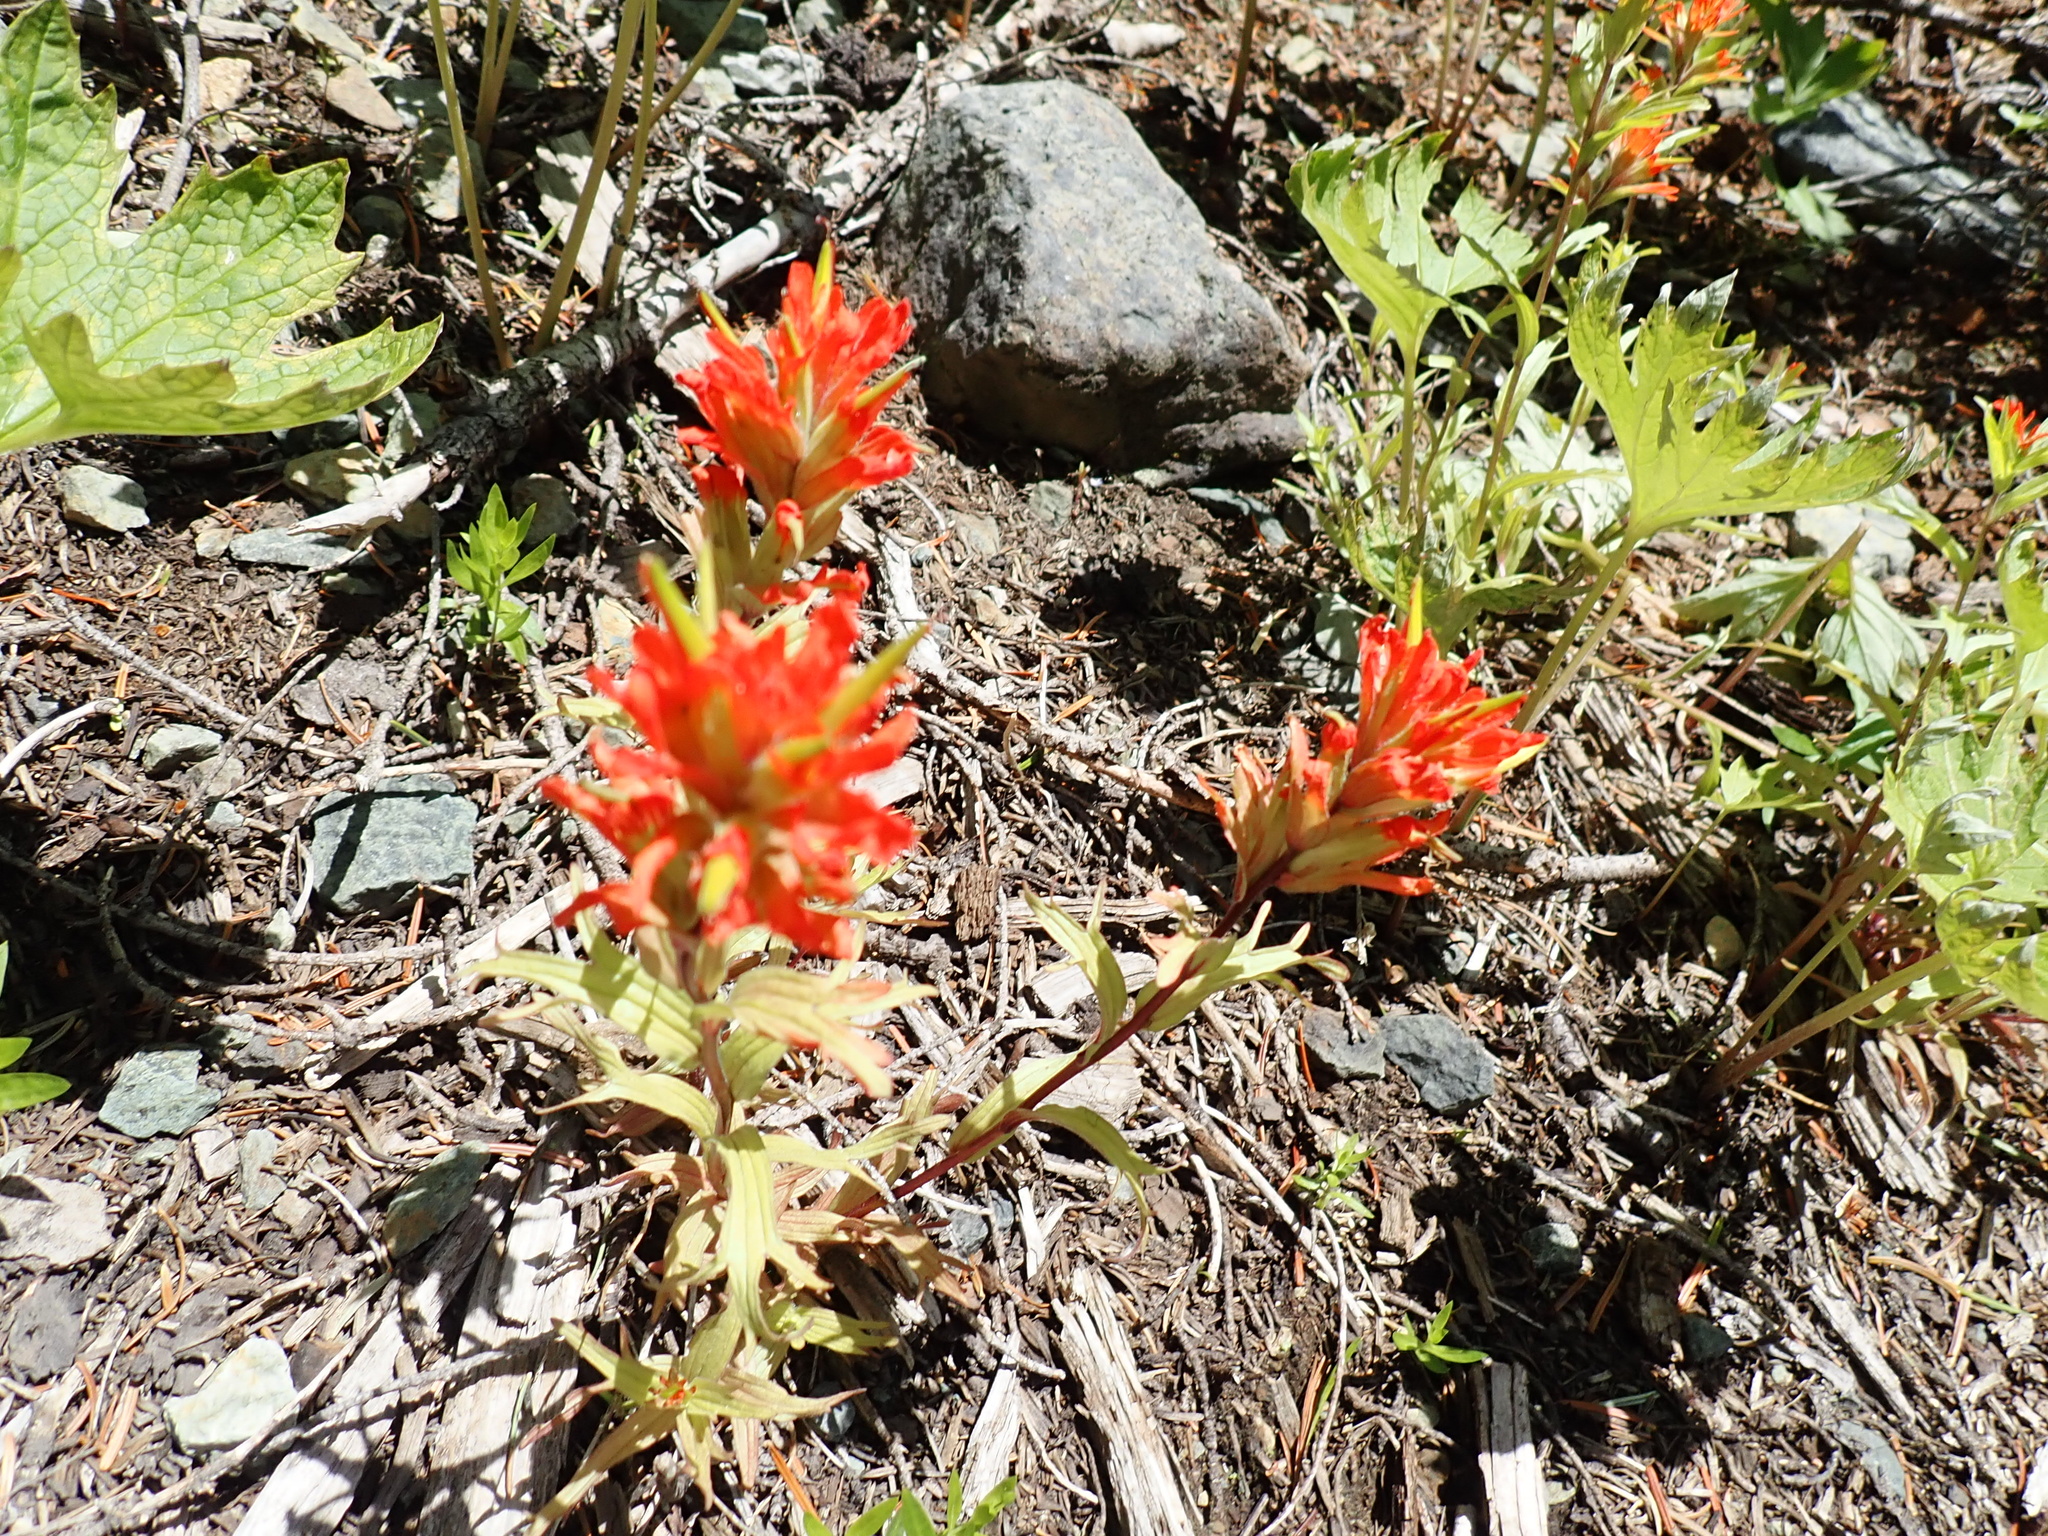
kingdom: Plantae
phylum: Tracheophyta
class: Magnoliopsida
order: Lamiales
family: Orobanchaceae
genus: Castilleja
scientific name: Castilleja hispida
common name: Bristly paintbrush
